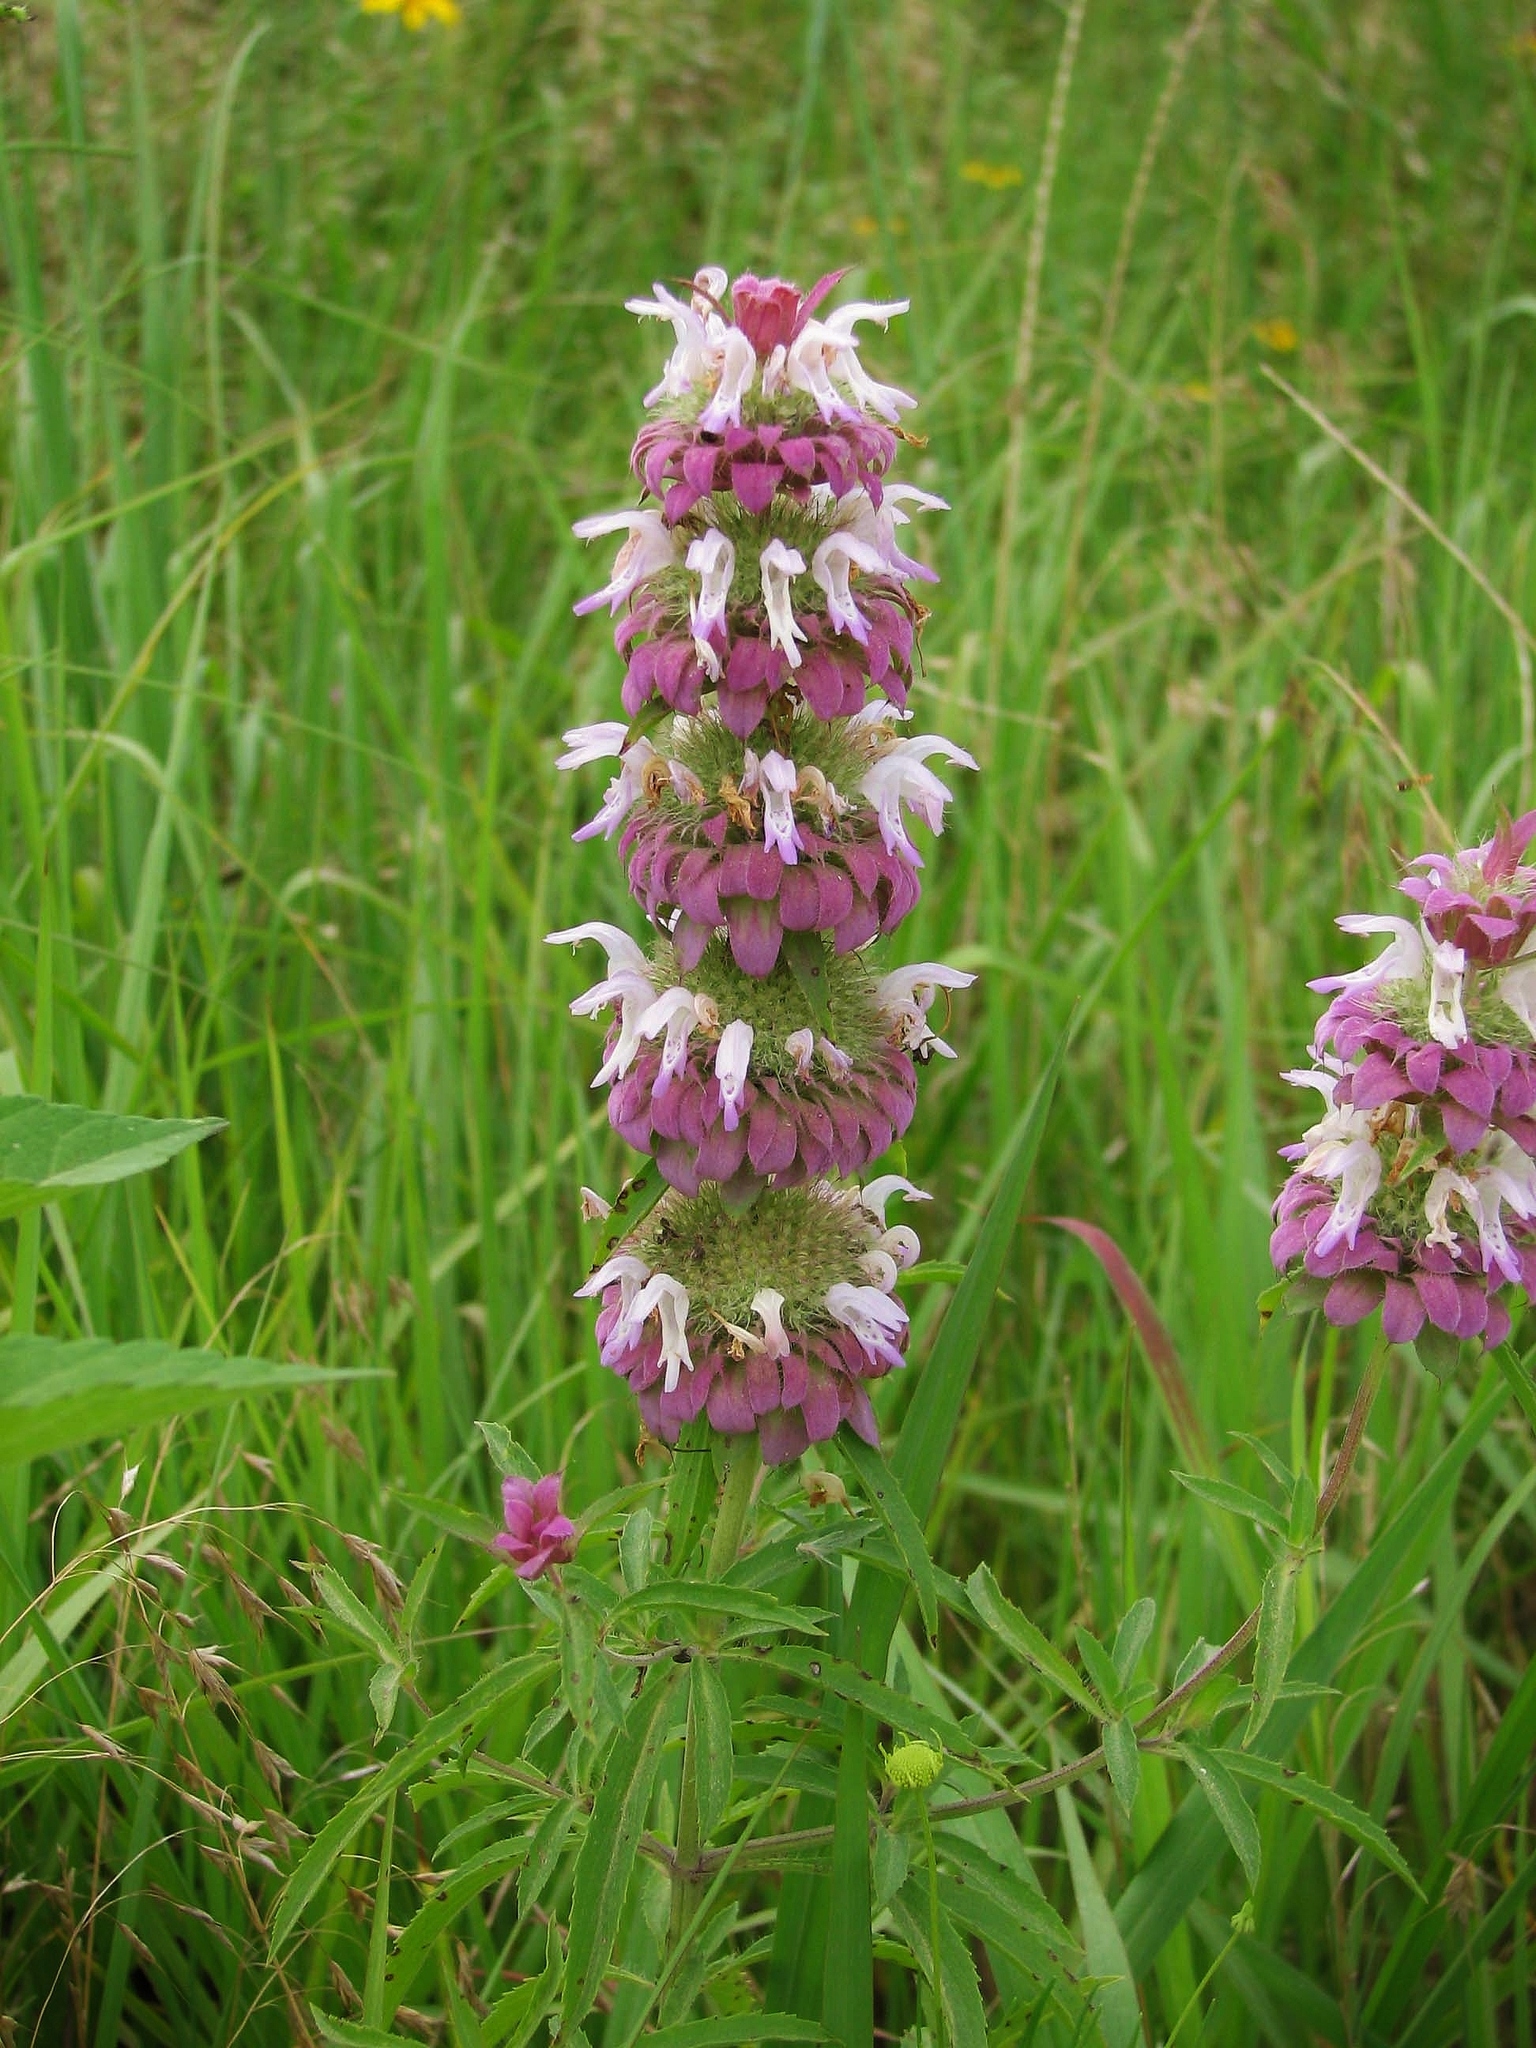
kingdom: Plantae
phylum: Tracheophyta
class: Magnoliopsida
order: Lamiales
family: Lamiaceae
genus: Monarda
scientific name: Monarda citriodora
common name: Lemon beebalm
